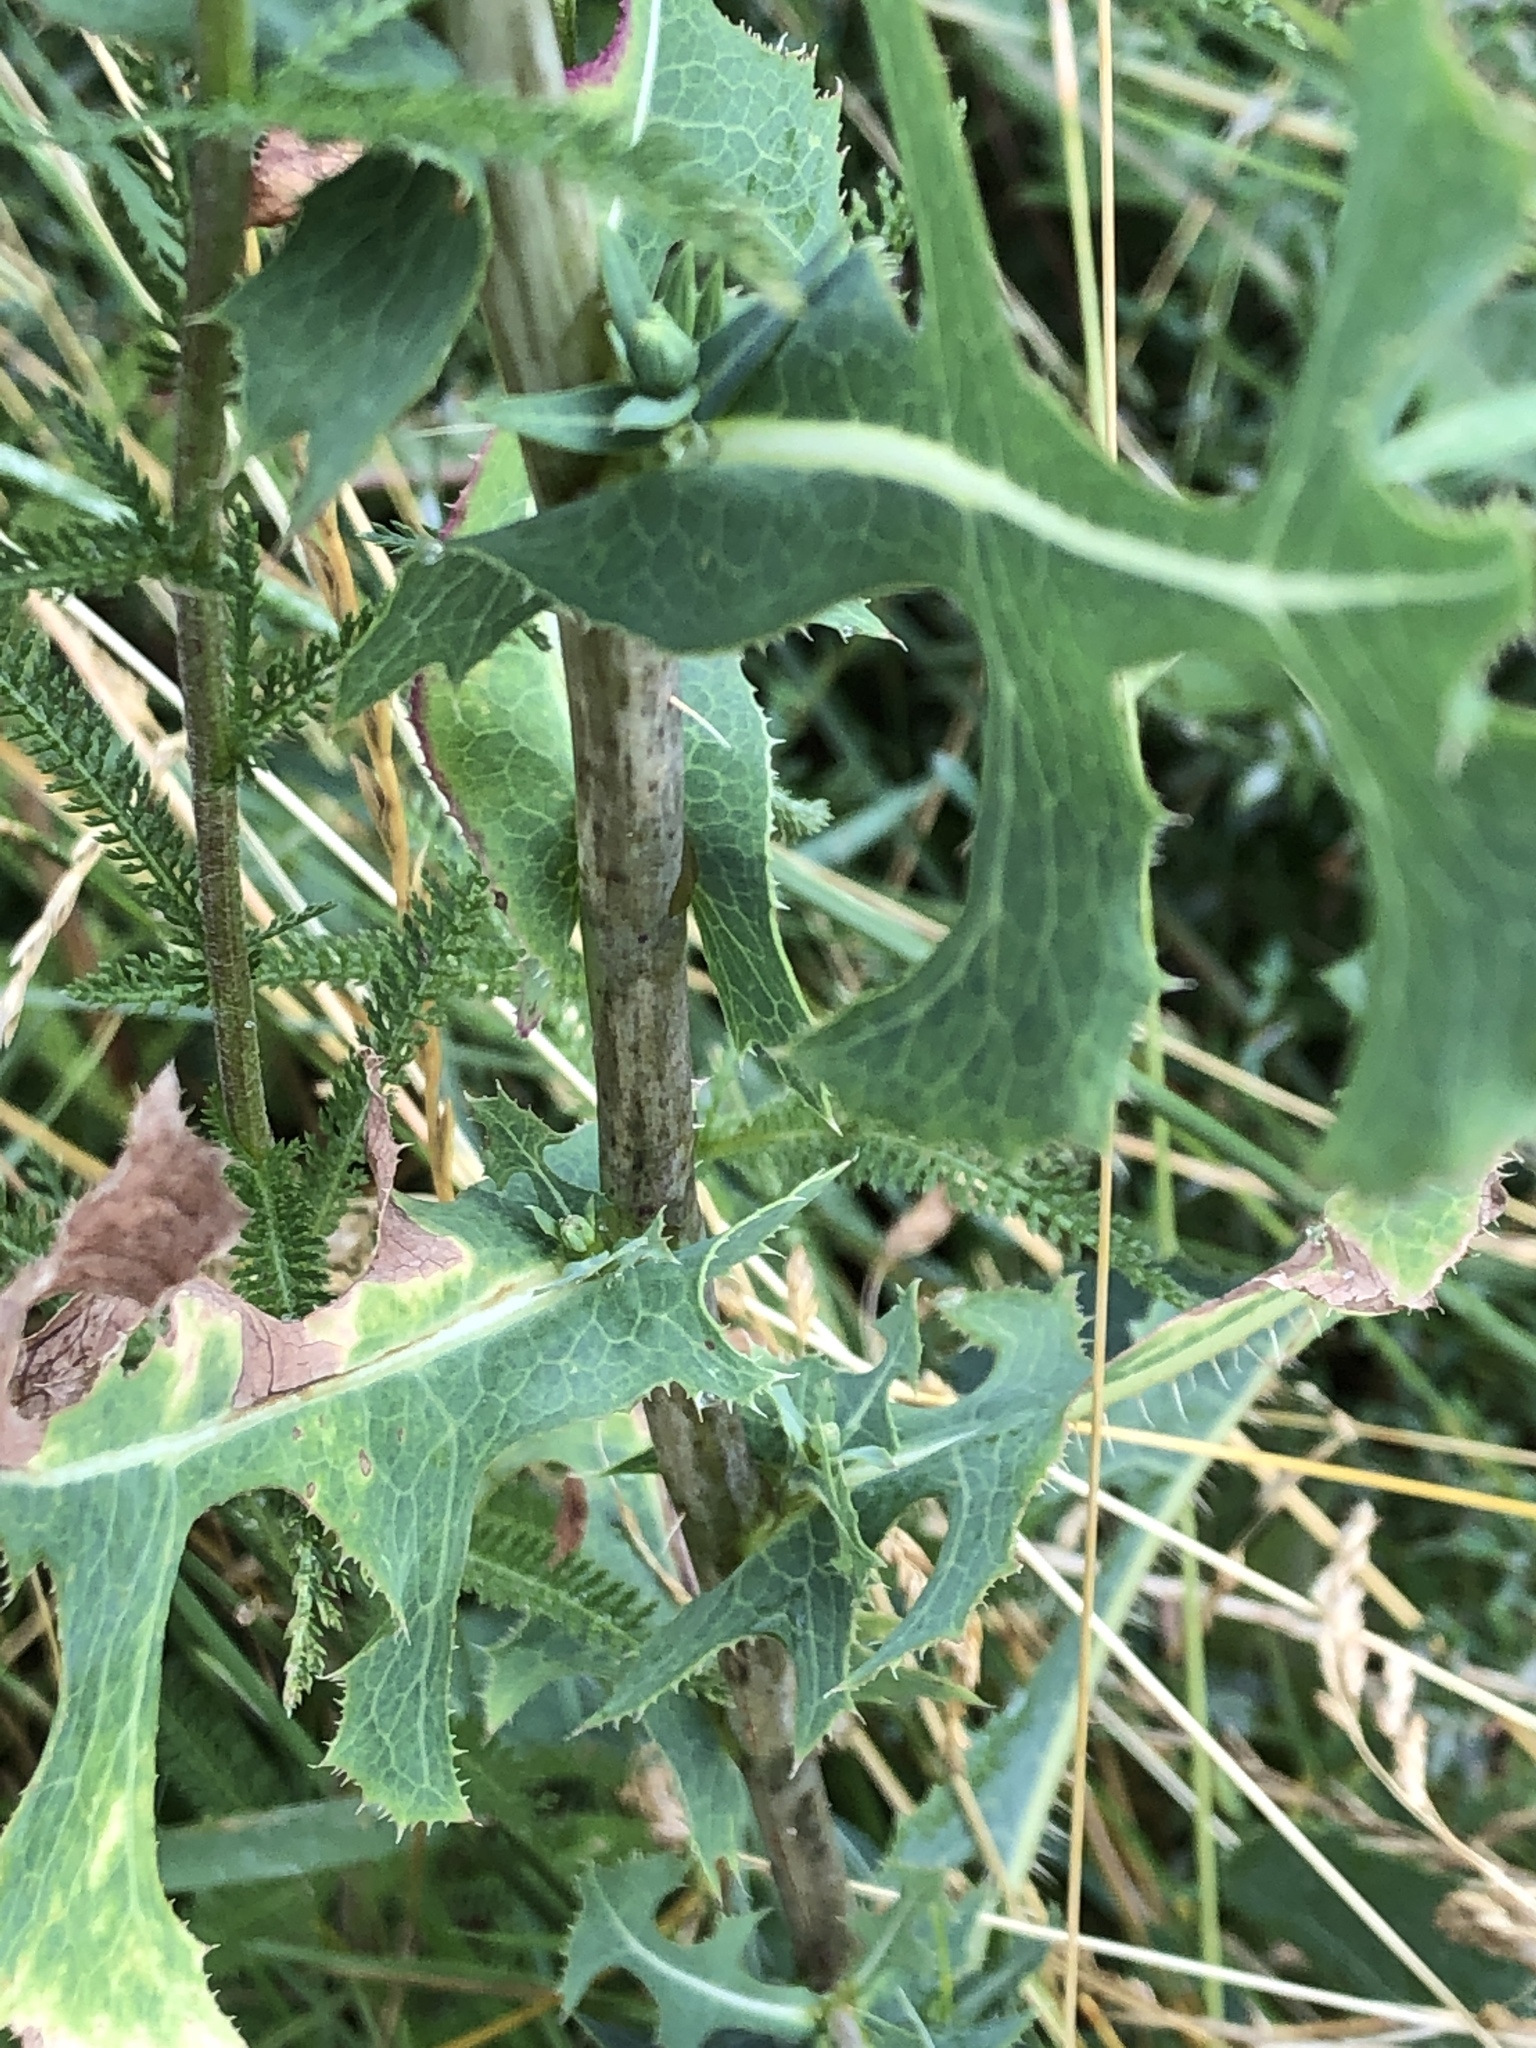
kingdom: Plantae
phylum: Tracheophyta
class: Magnoliopsida
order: Asterales
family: Asteraceae
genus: Lactuca
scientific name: Lactuca serriola
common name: Prickly lettuce
